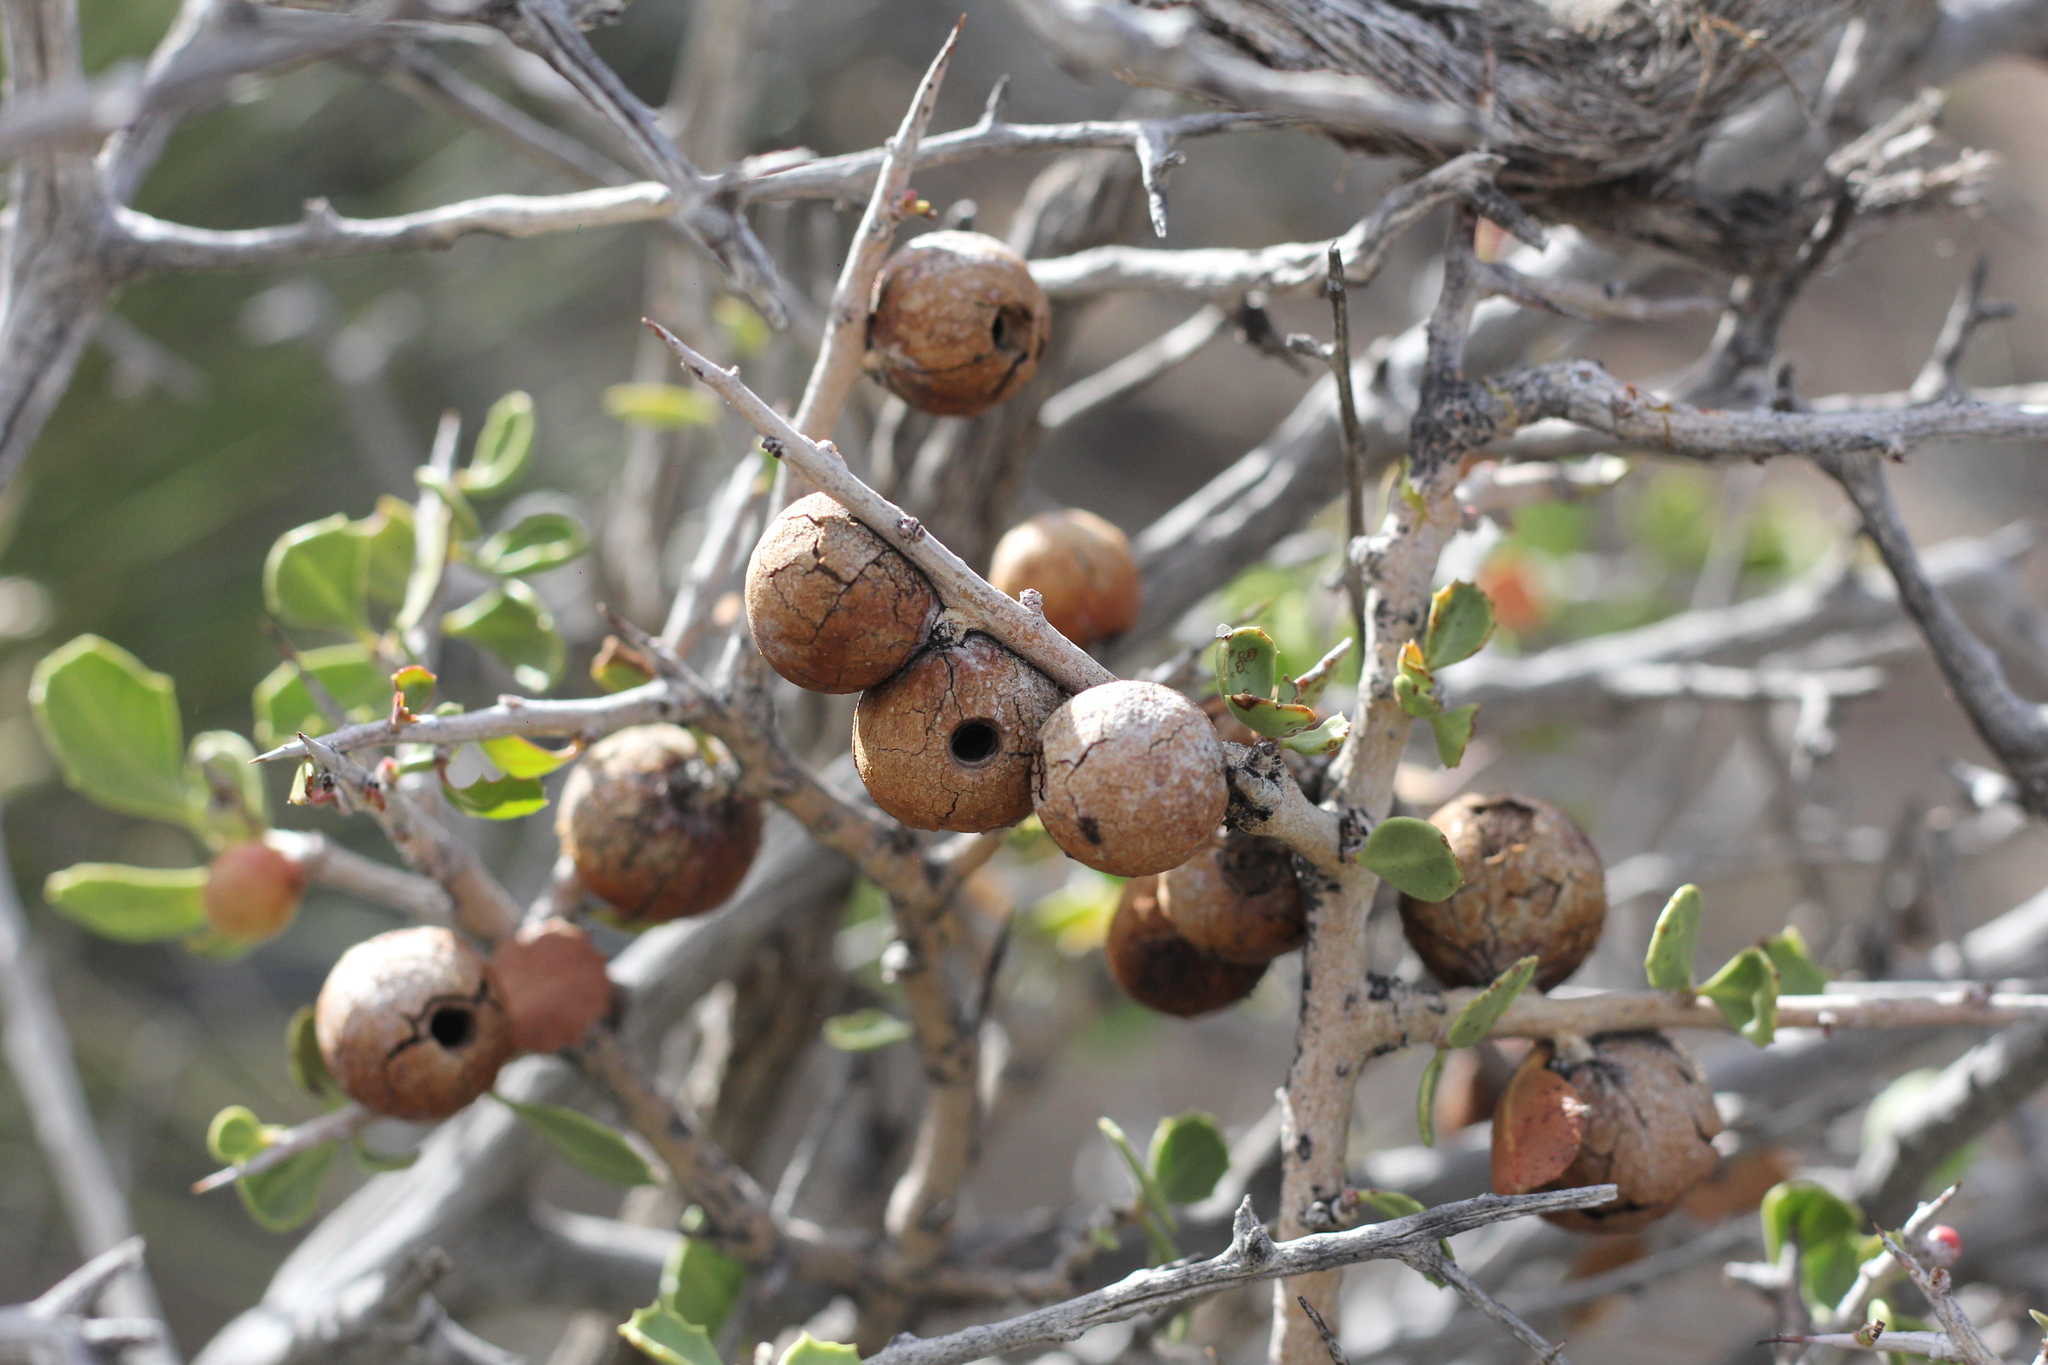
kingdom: Plantae
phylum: Tracheophyta
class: Magnoliopsida
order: Sapindales
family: Anacardiaceae
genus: Schinus
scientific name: Schinus johnstonii
